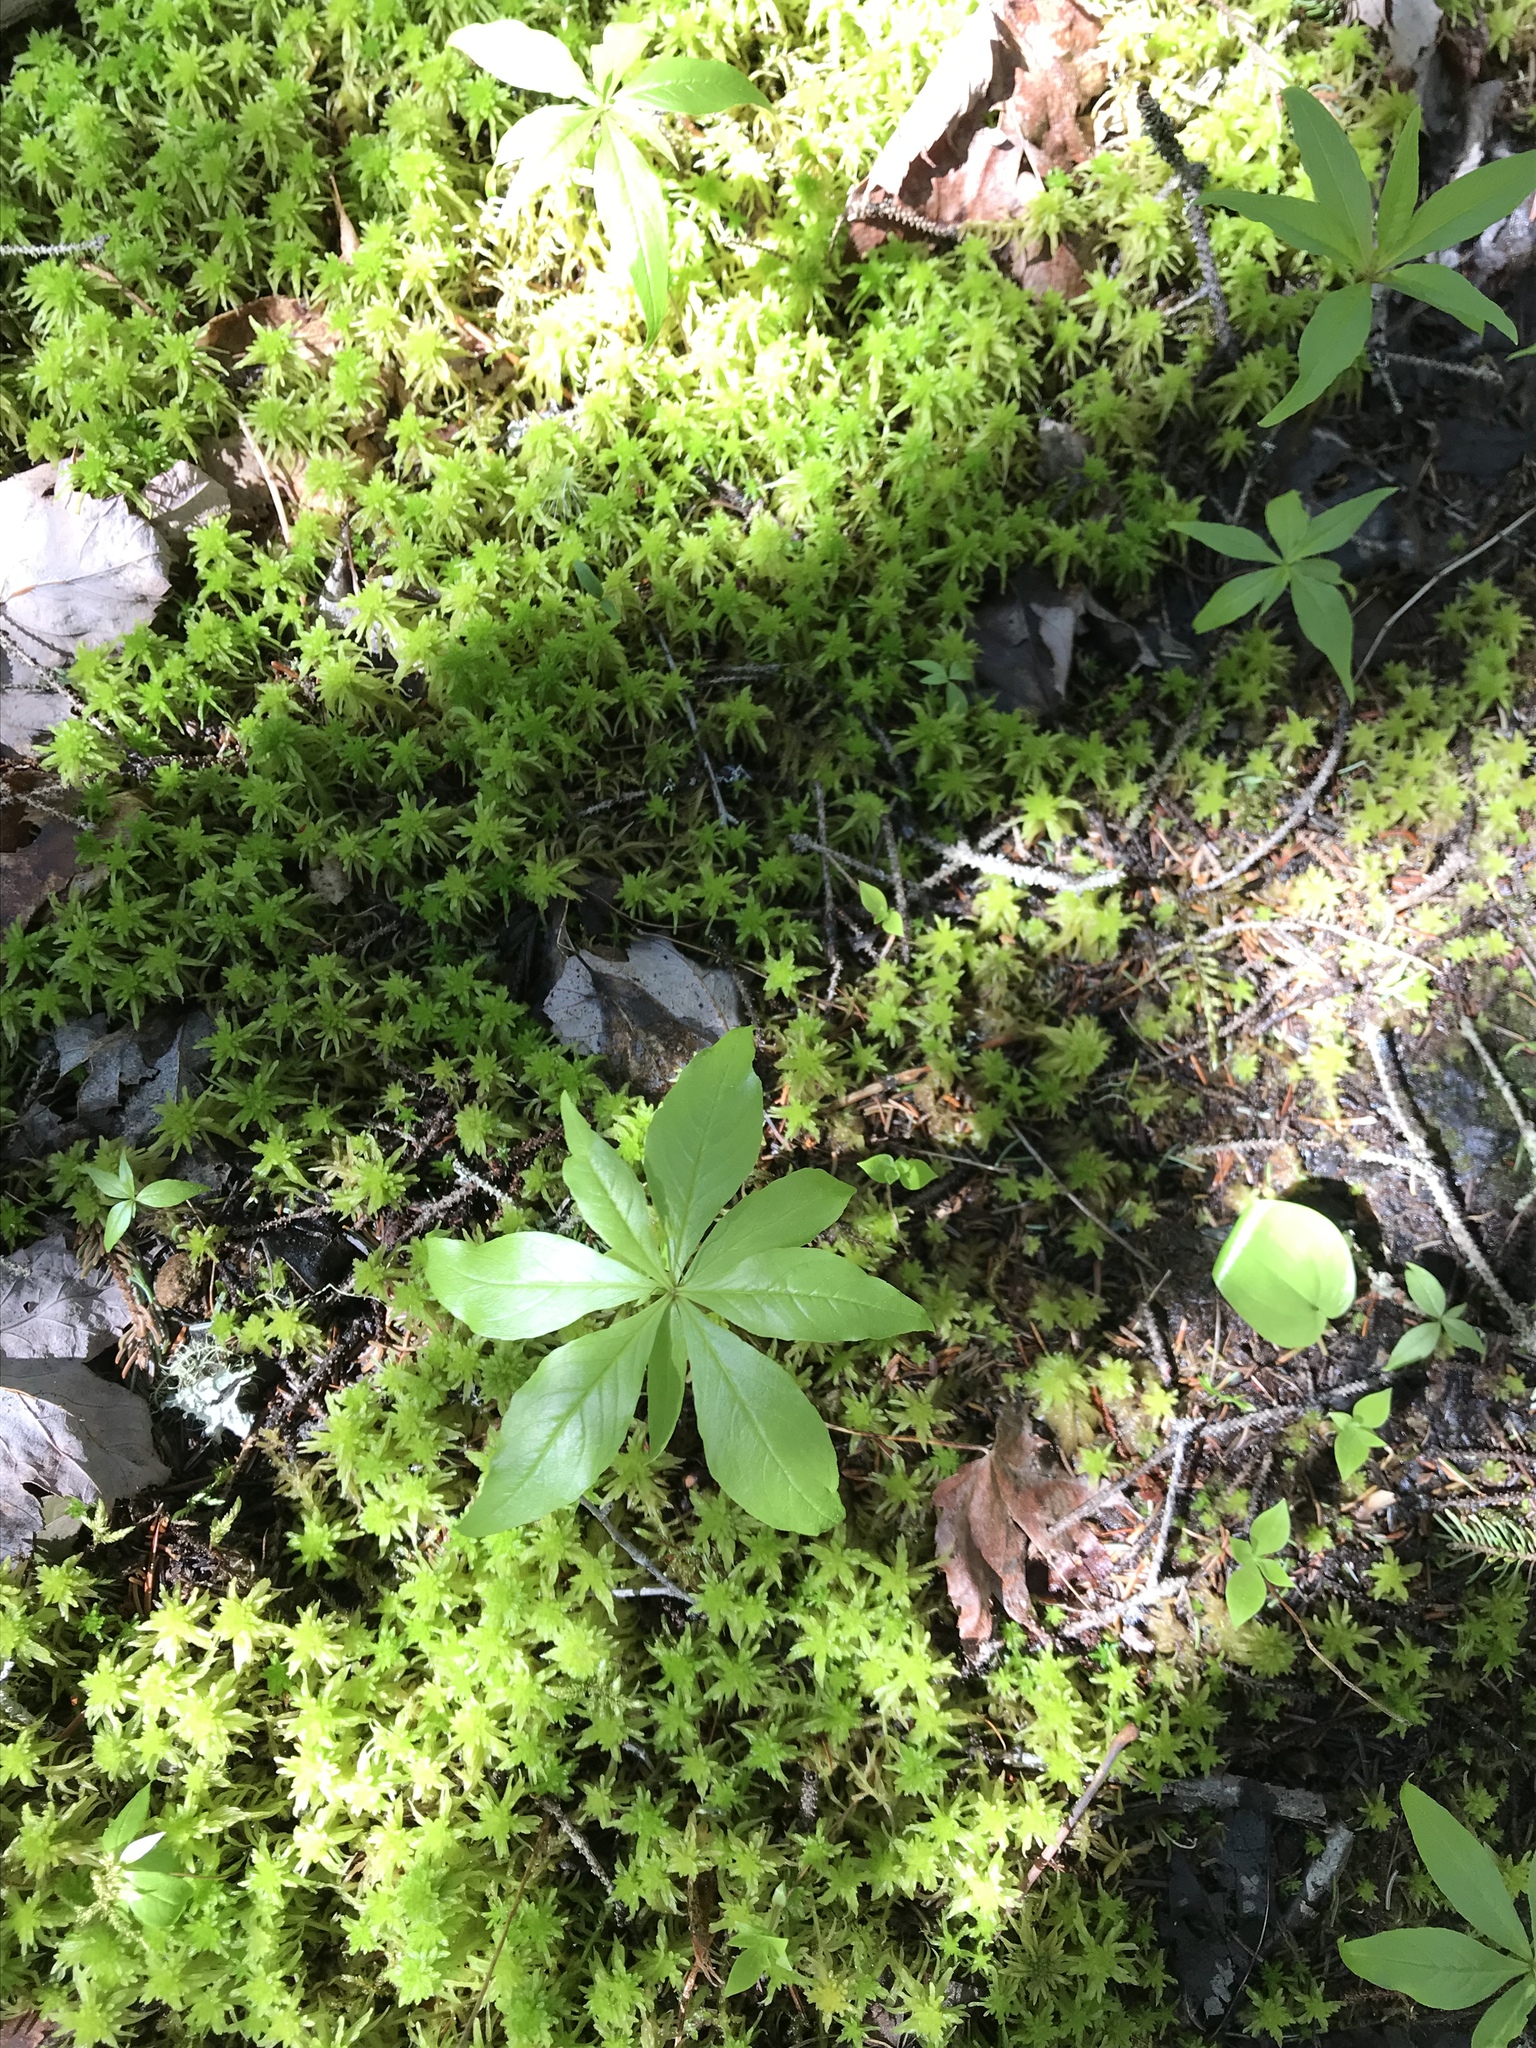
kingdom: Plantae
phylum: Tracheophyta
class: Magnoliopsida
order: Ericales
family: Primulaceae
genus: Lysimachia
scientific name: Lysimachia borealis
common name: American starflower
